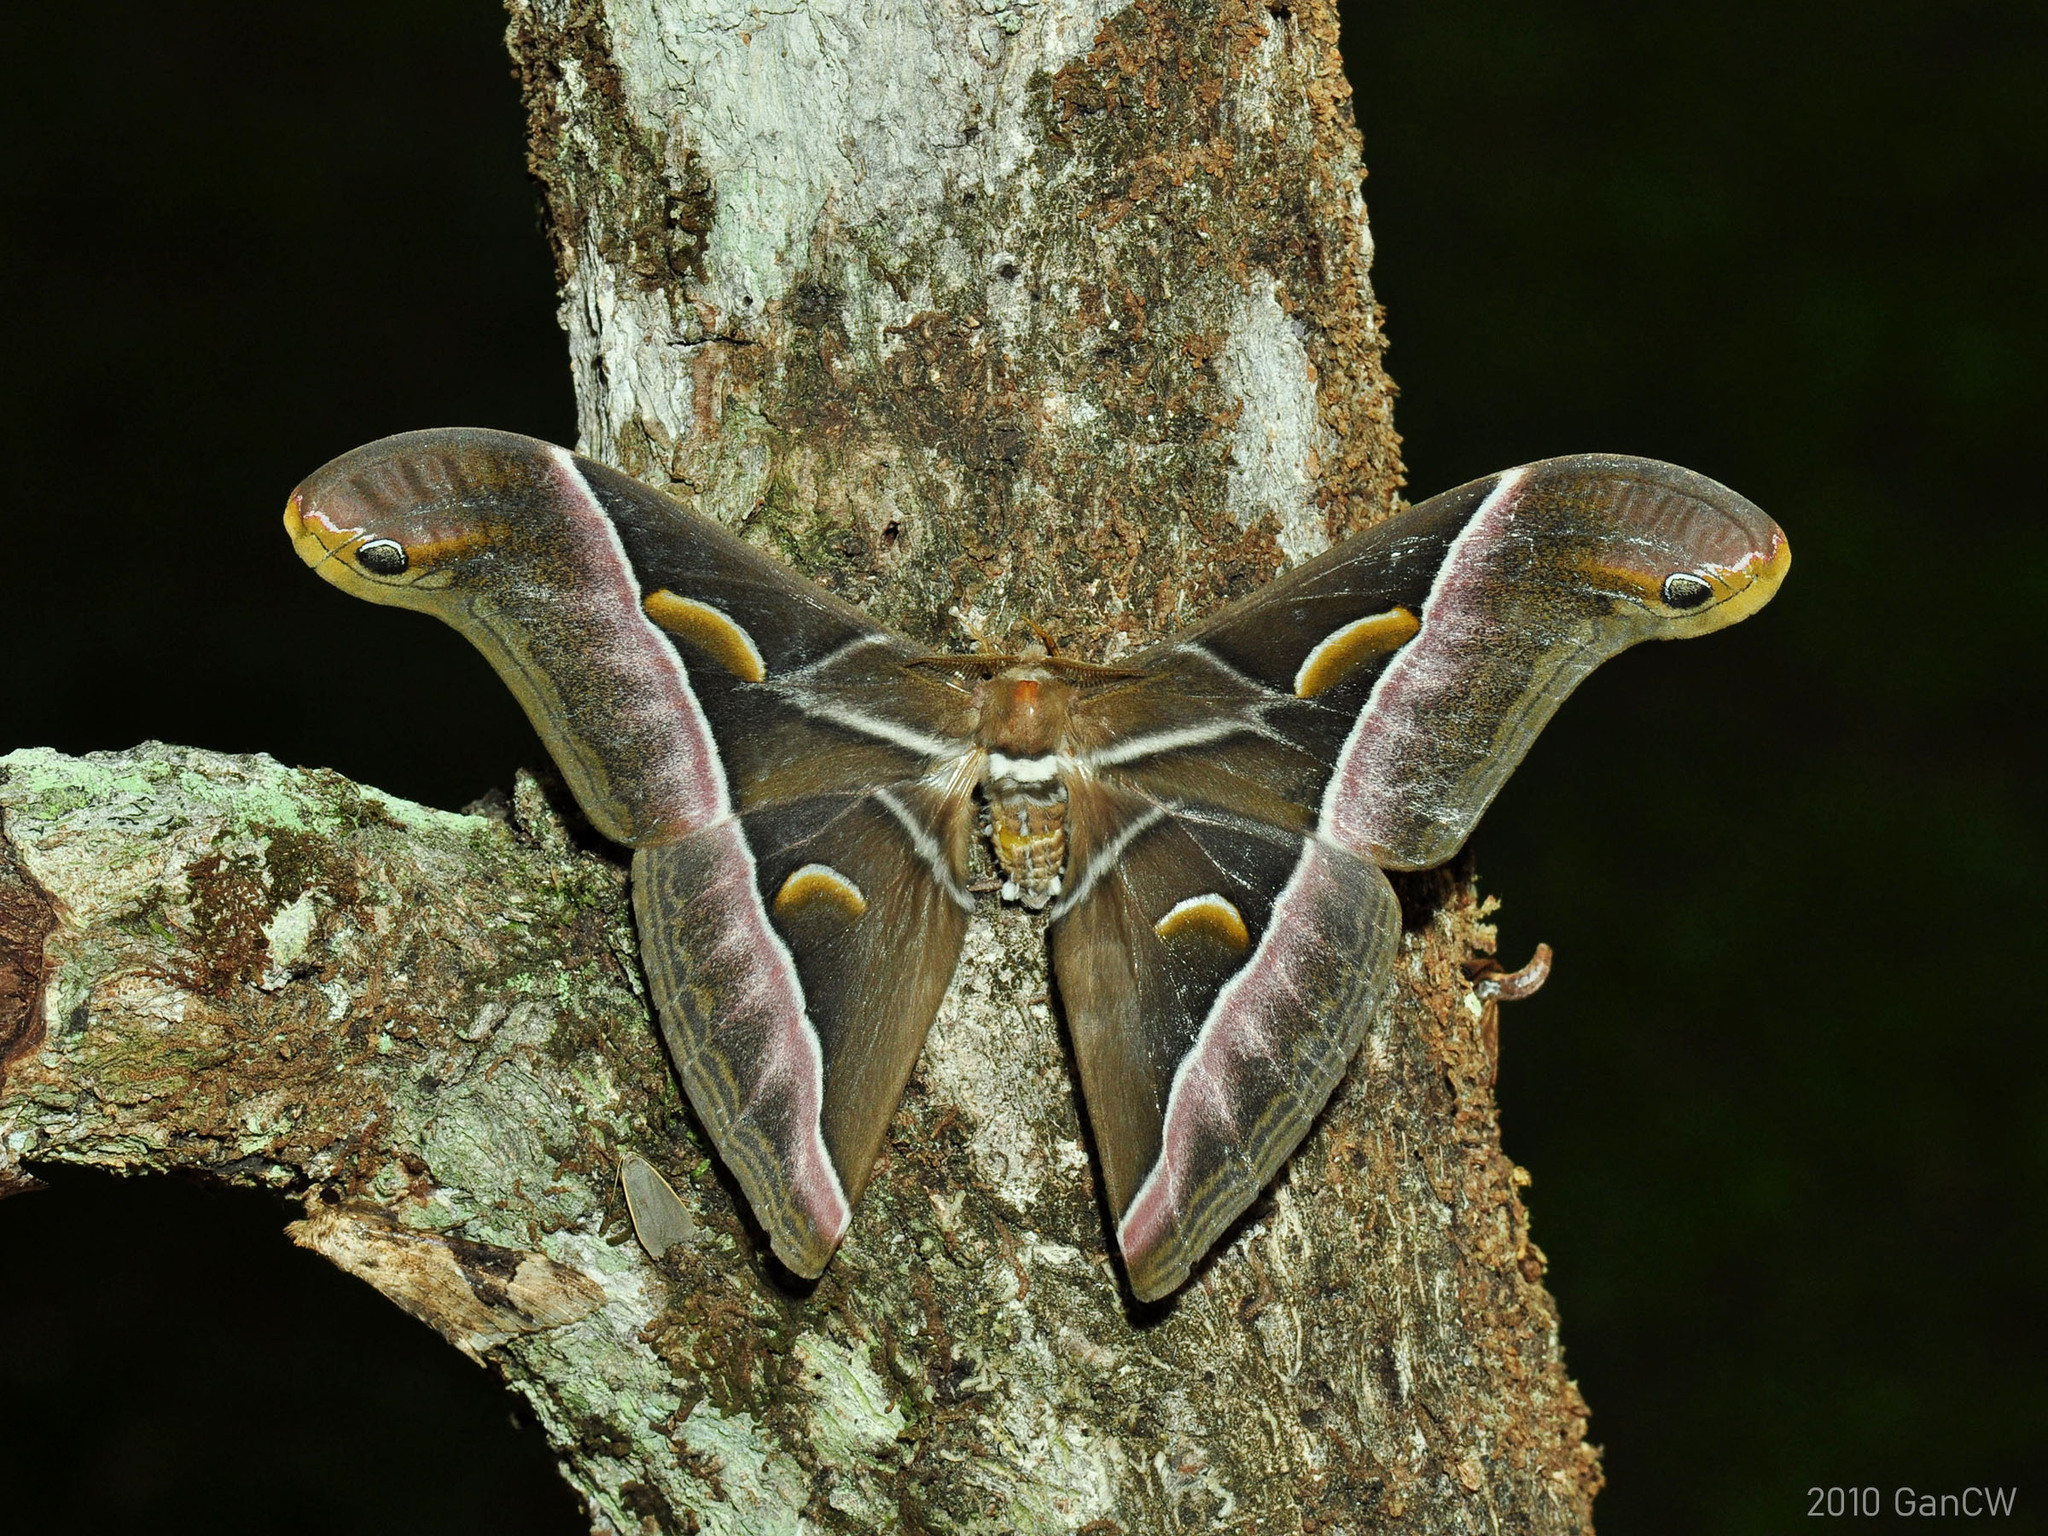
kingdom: Animalia
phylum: Arthropoda
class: Insecta
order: Lepidoptera
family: Saturniidae
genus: Samia
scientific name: Samia tetrica
